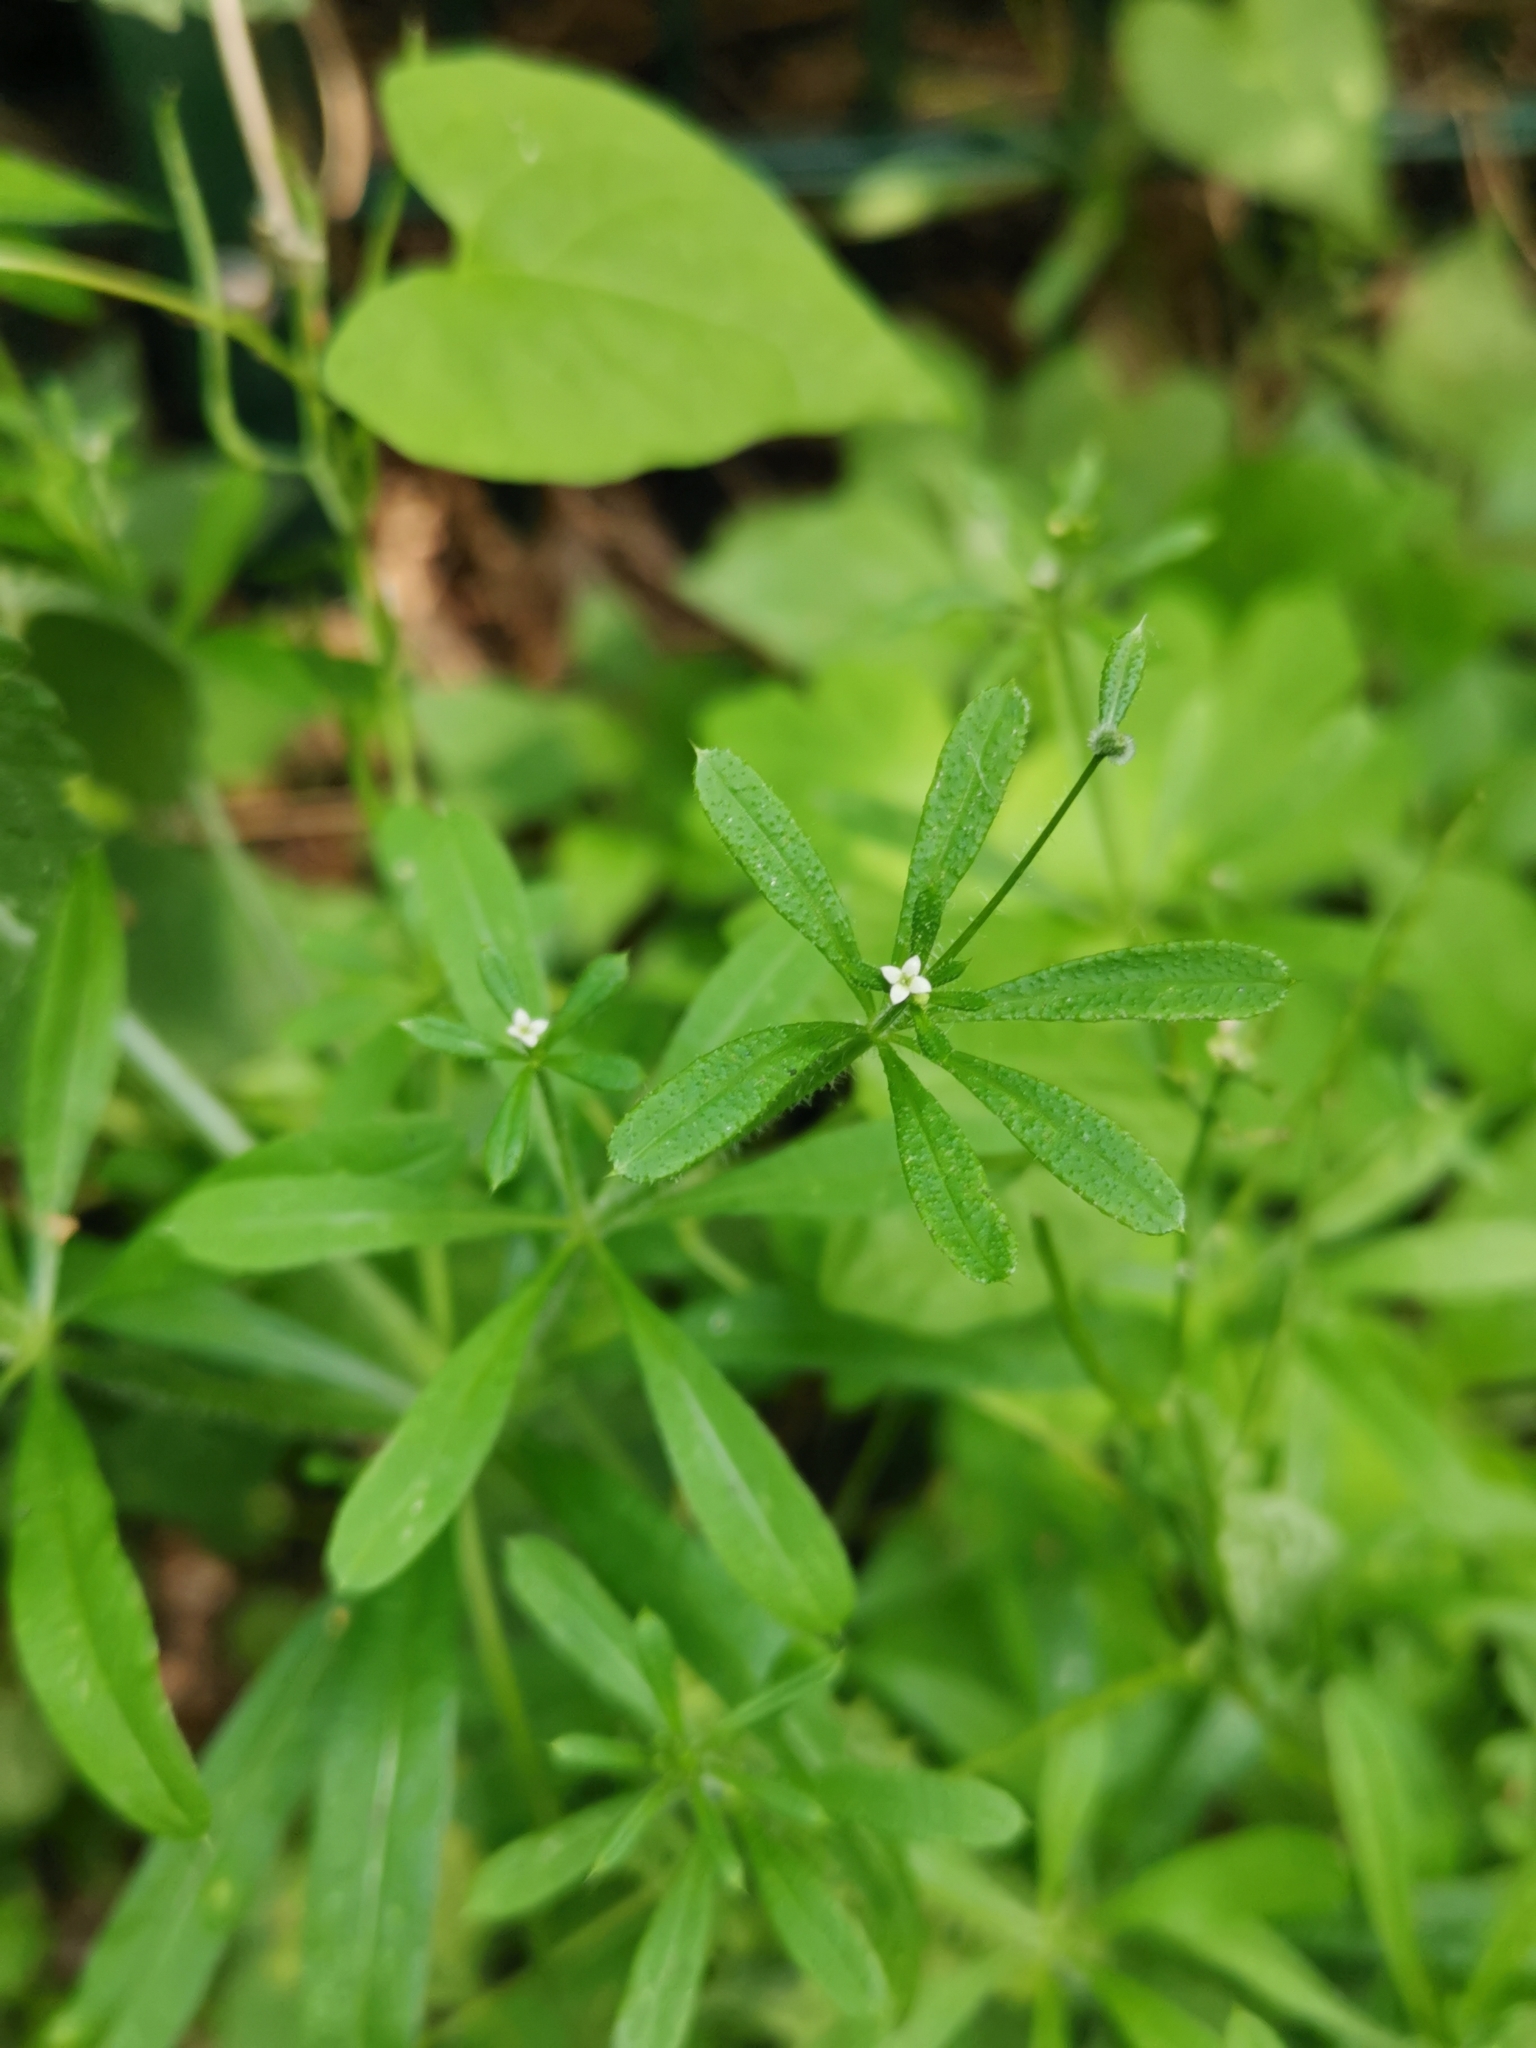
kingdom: Plantae
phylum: Tracheophyta
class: Magnoliopsida
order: Gentianales
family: Rubiaceae
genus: Galium
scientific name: Galium aparine
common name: Cleavers
